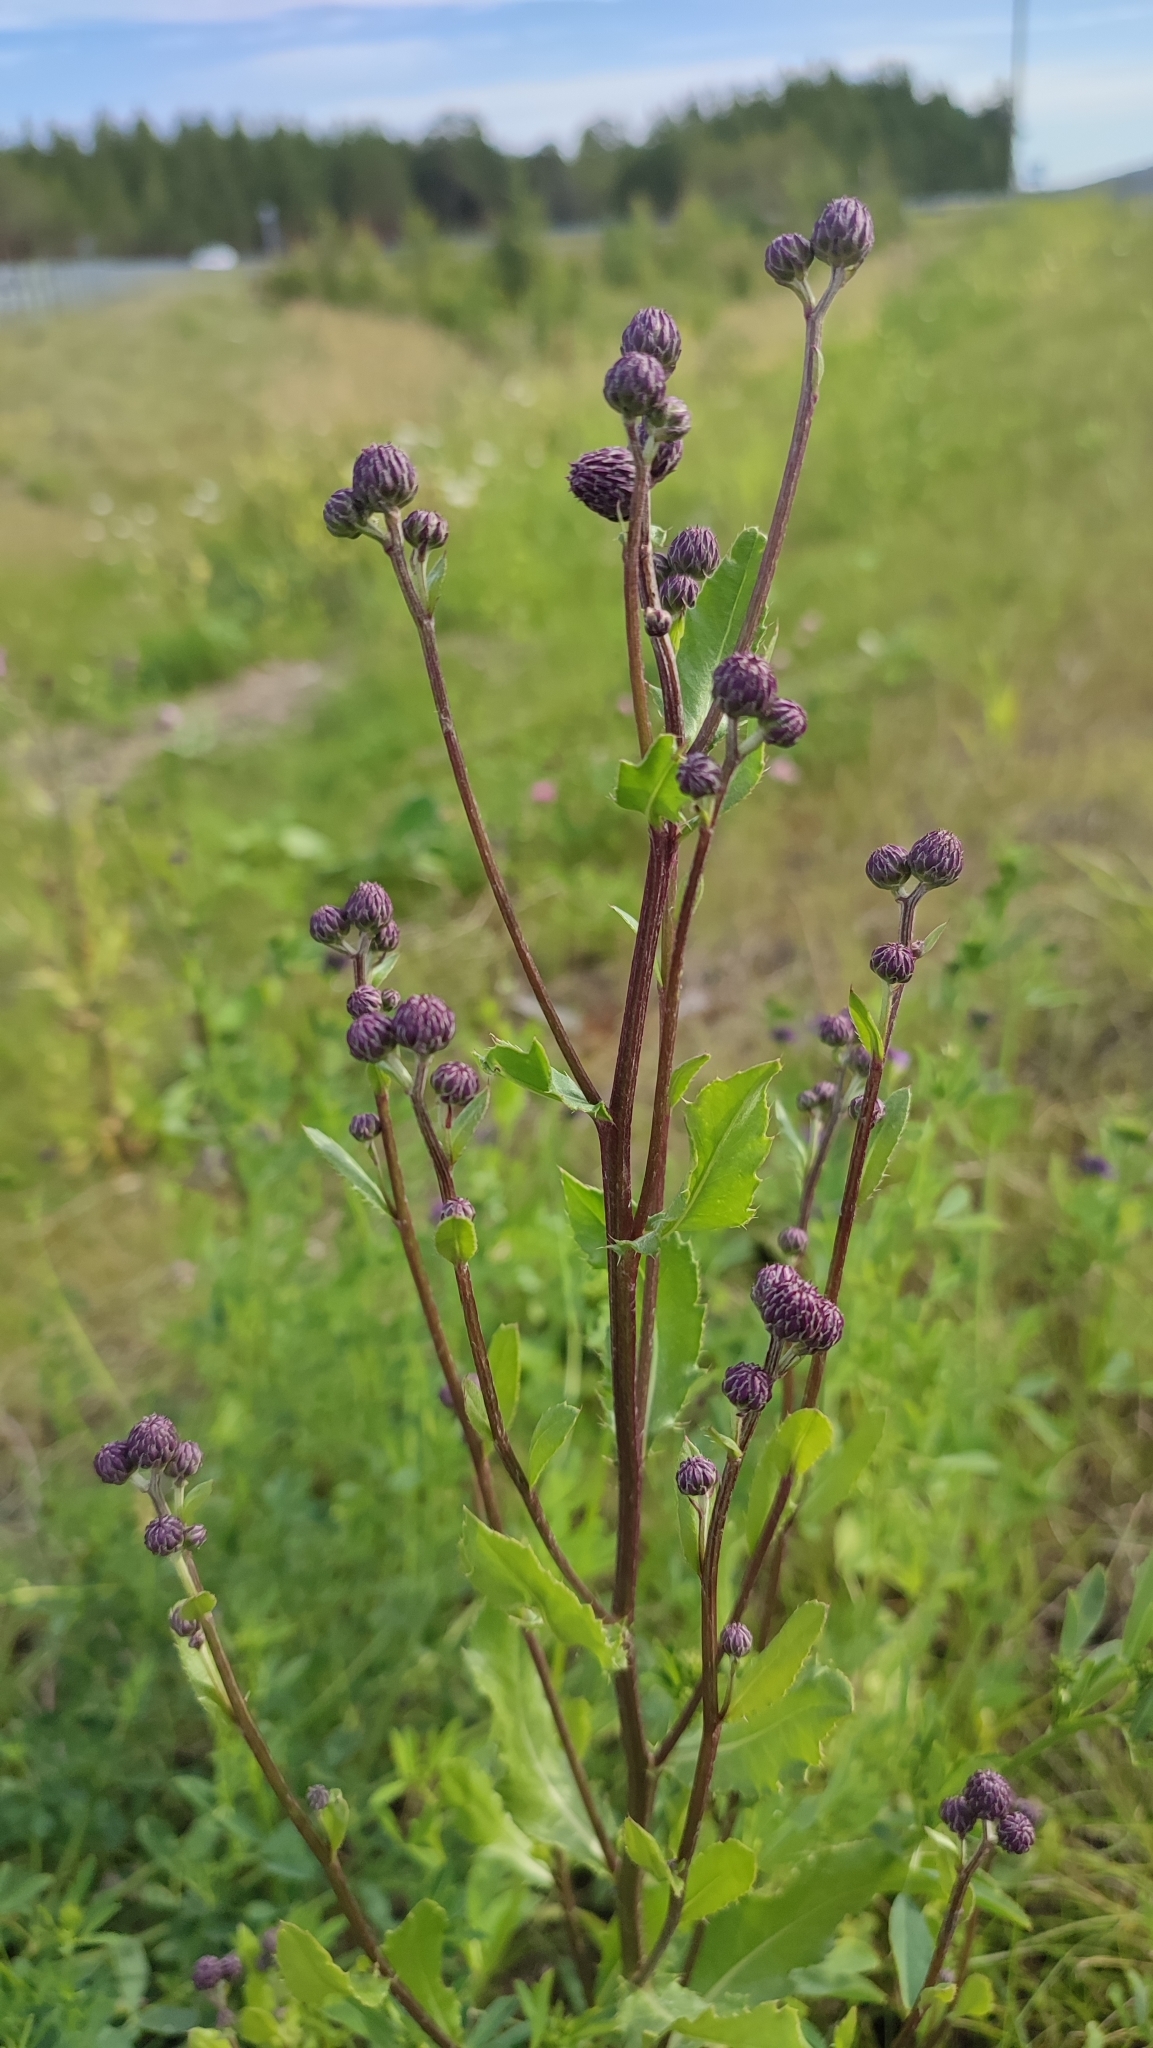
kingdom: Plantae
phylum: Tracheophyta
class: Magnoliopsida
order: Asterales
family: Asteraceae
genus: Cirsium
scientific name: Cirsium arvense
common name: Creeping thistle
